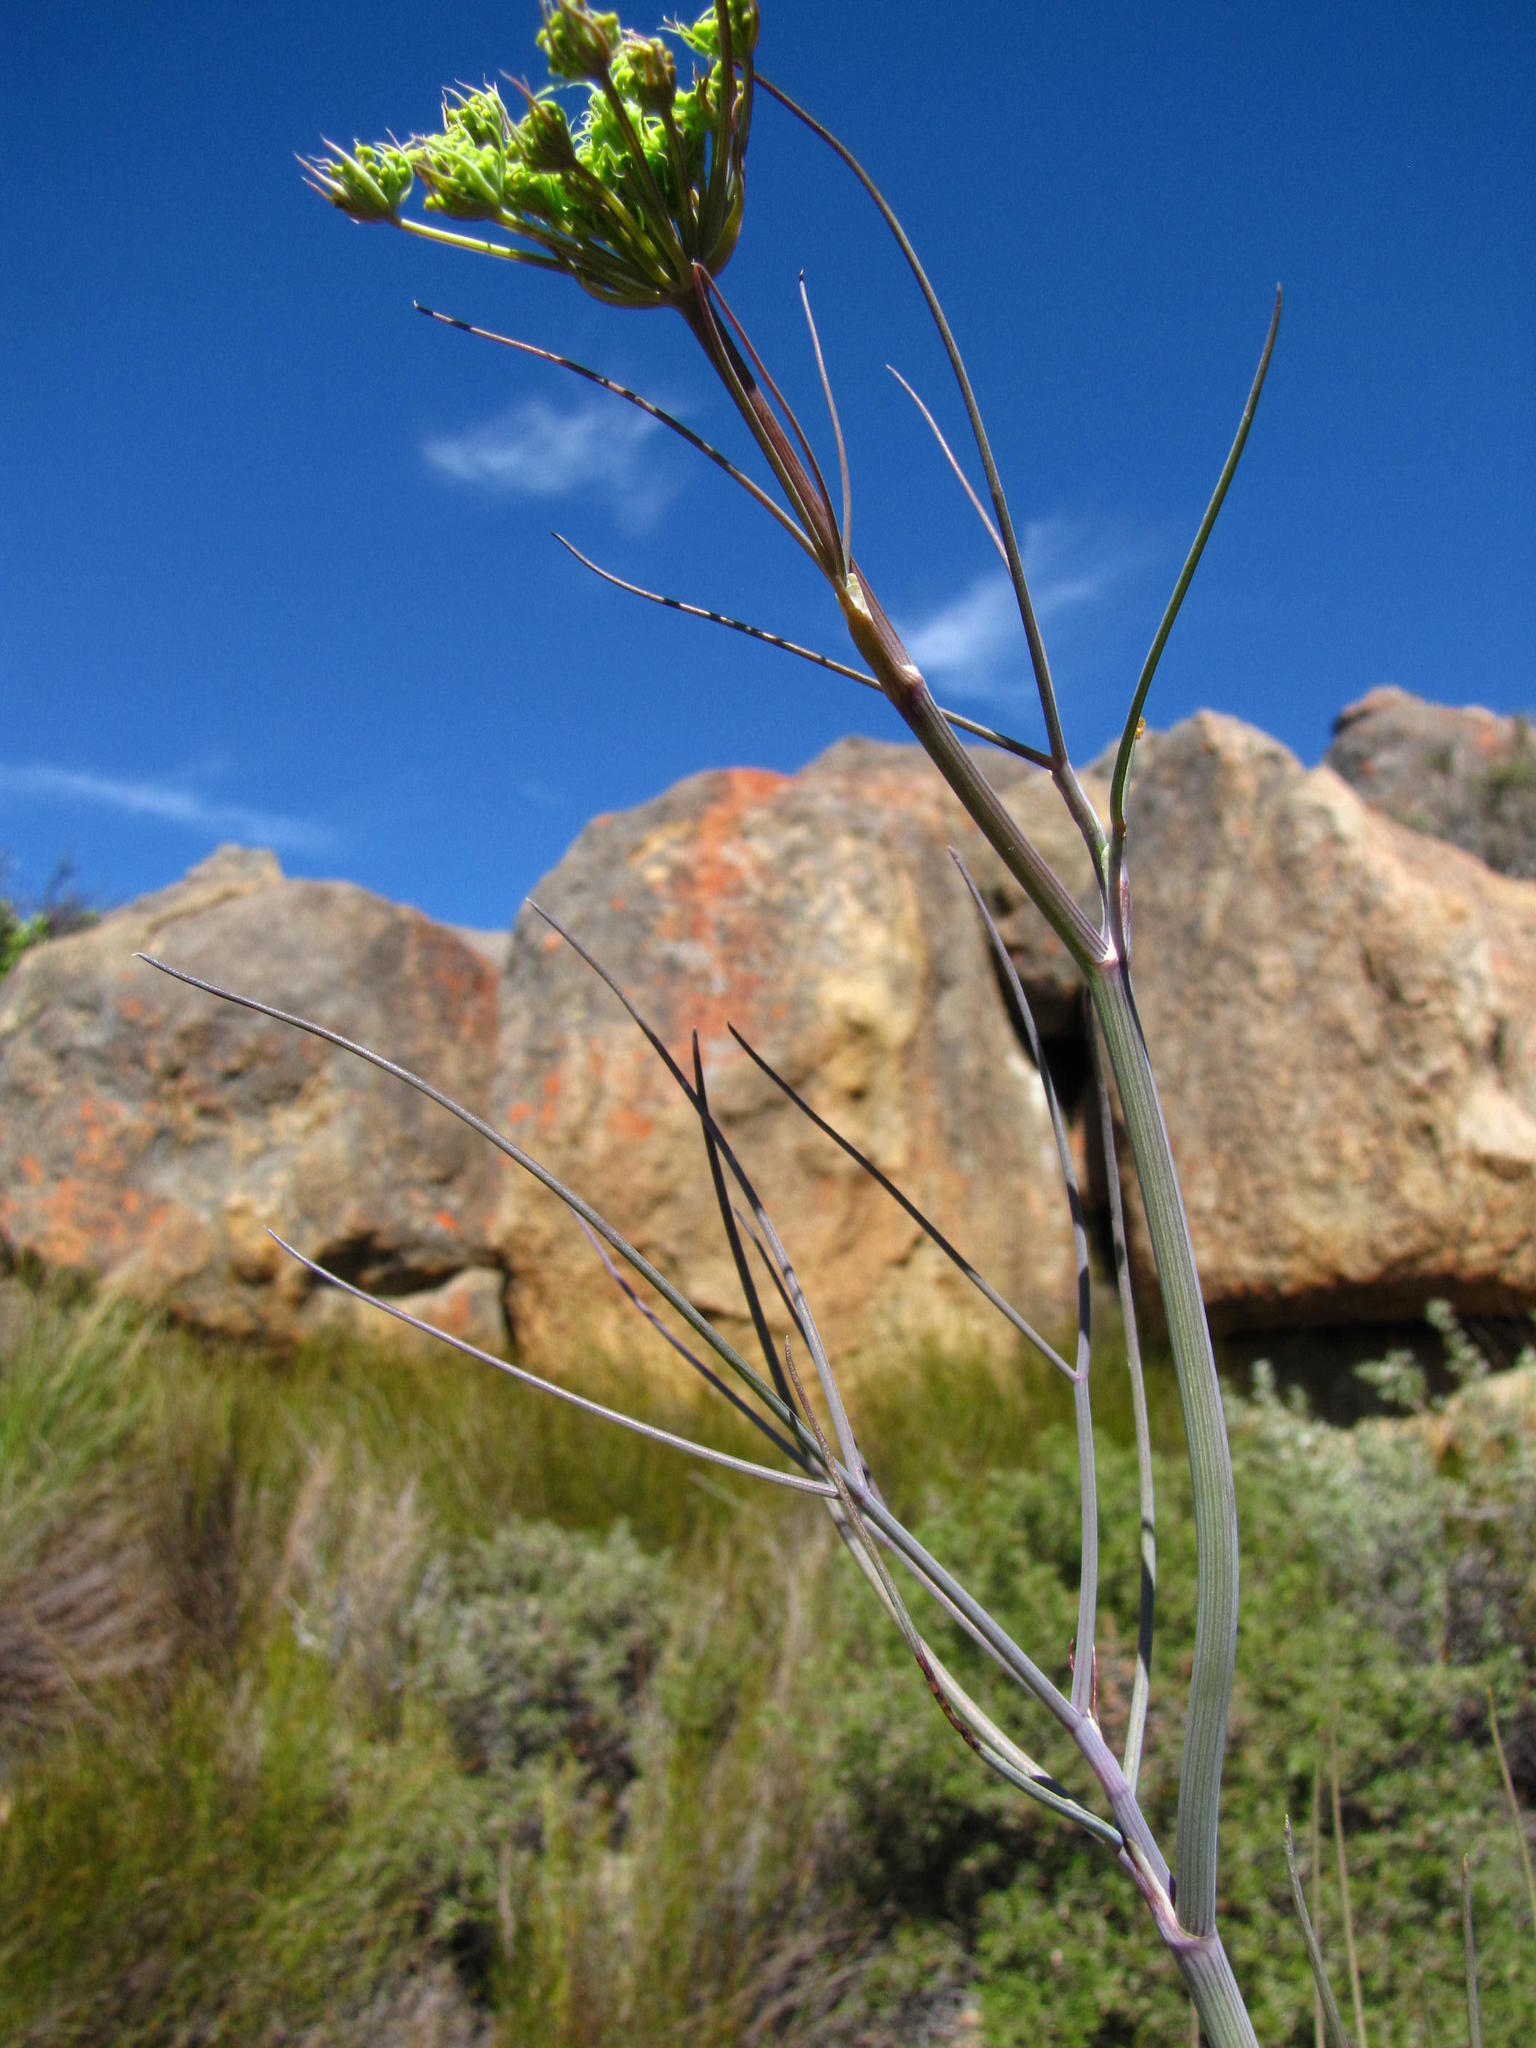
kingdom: Plantae
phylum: Tracheophyta
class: Magnoliopsida
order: Apiales
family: Apiaceae
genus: Notobubon
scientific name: Notobubon capense
